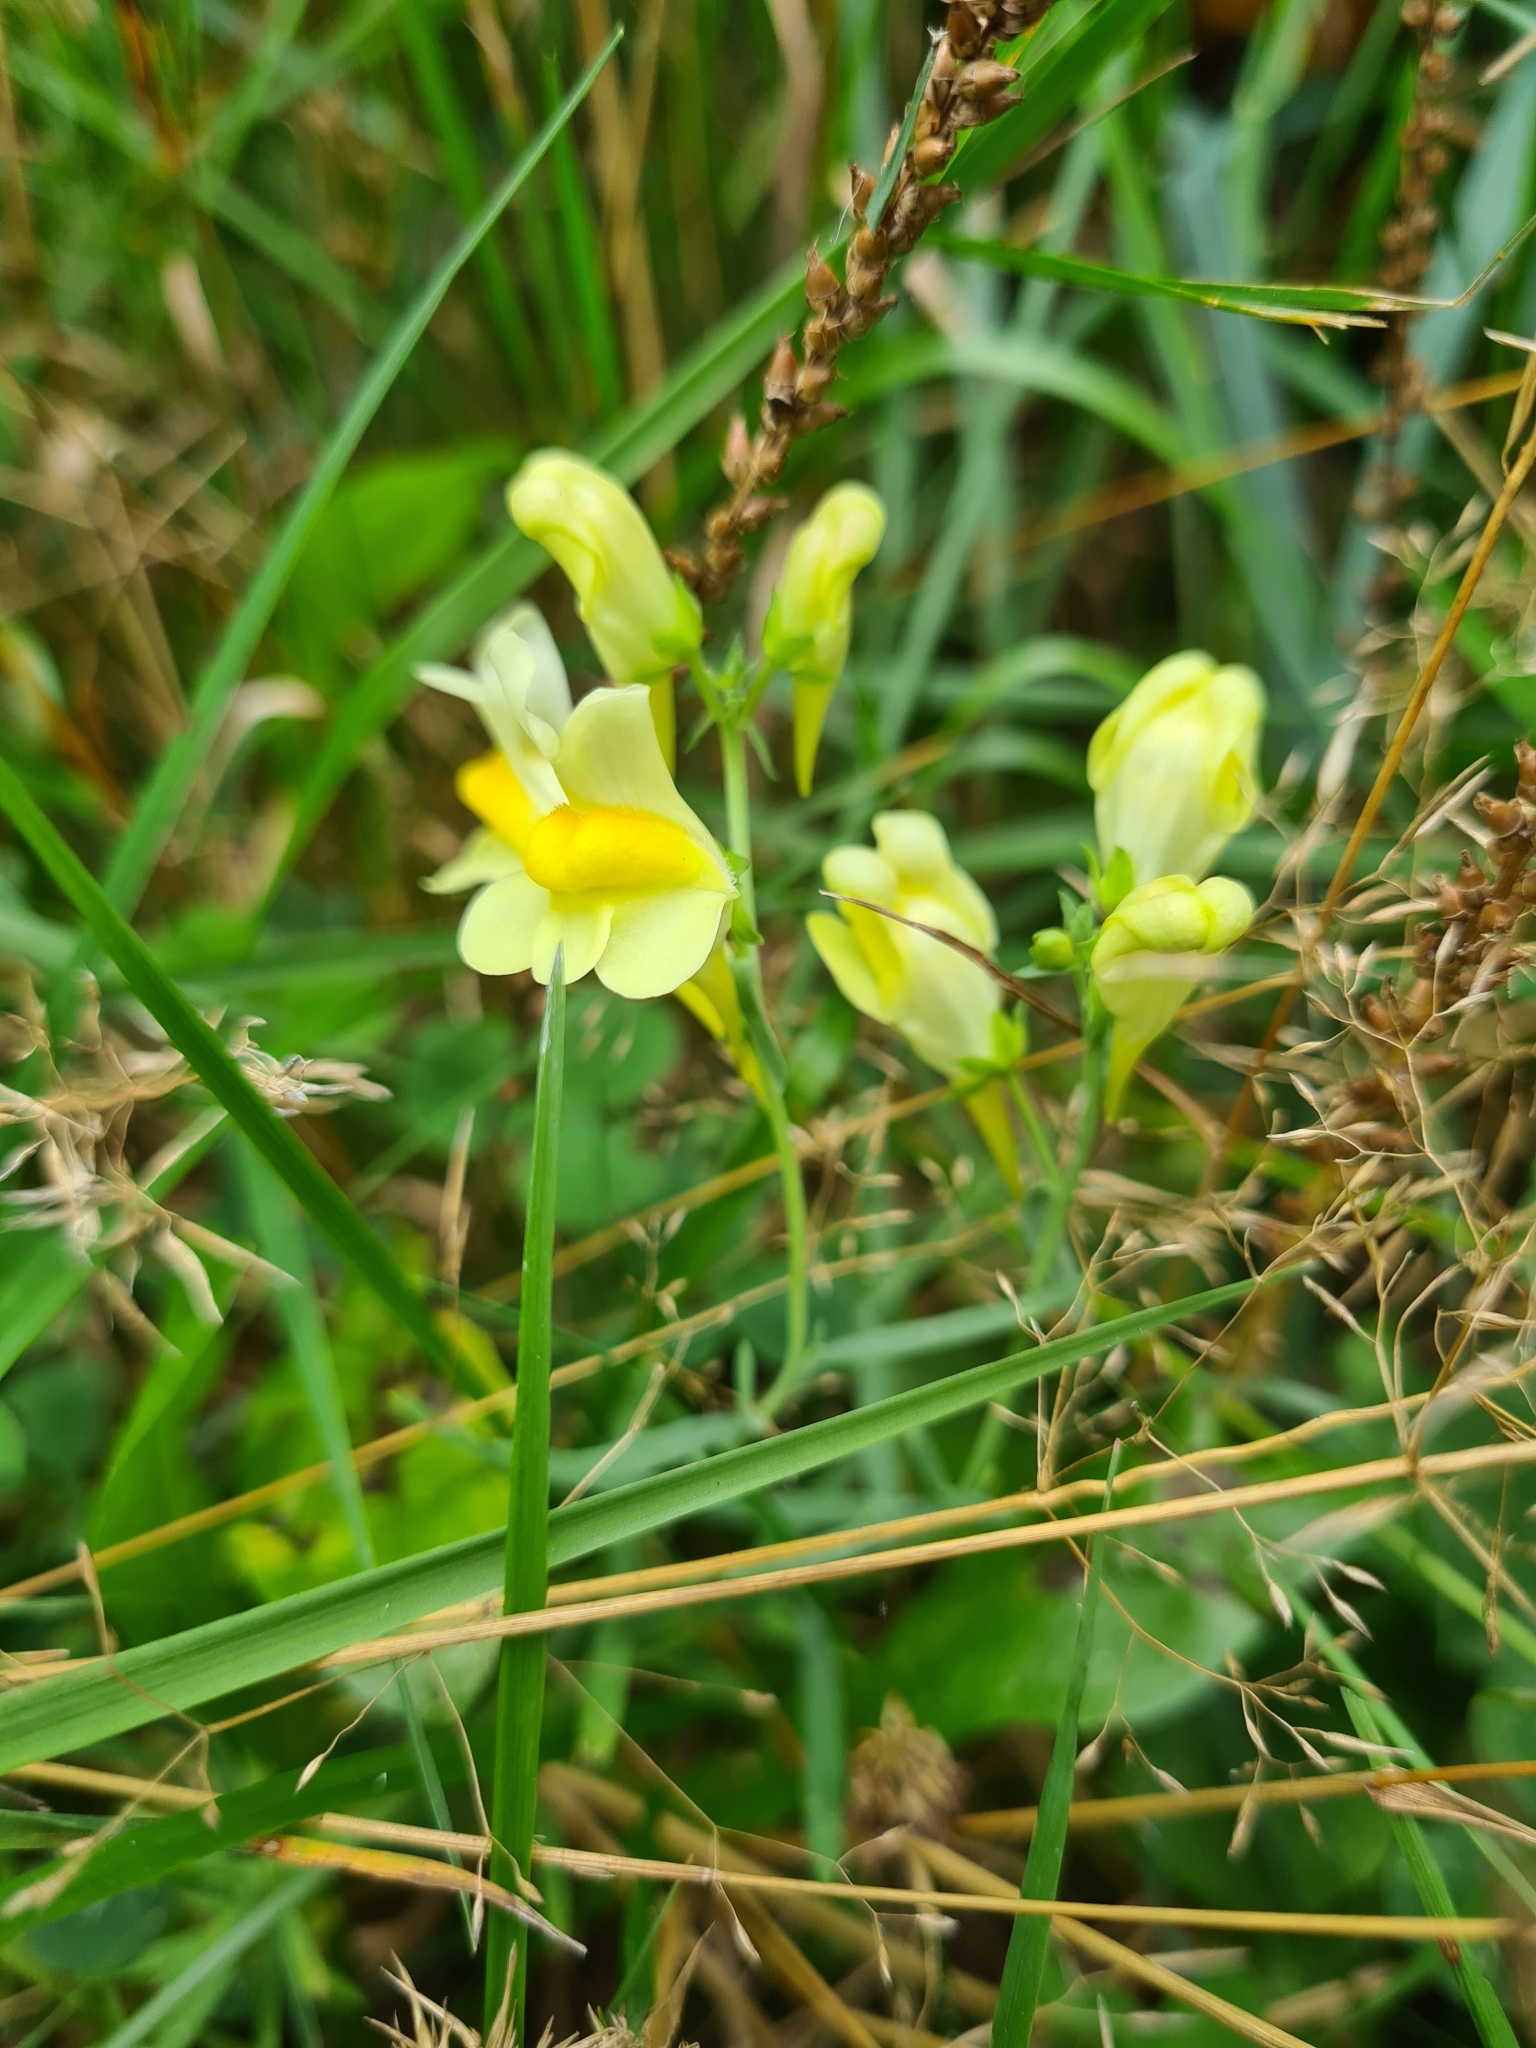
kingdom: Plantae
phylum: Tracheophyta
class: Magnoliopsida
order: Lamiales
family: Plantaginaceae
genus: Linaria
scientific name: Linaria vulgaris
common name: Butter and eggs
